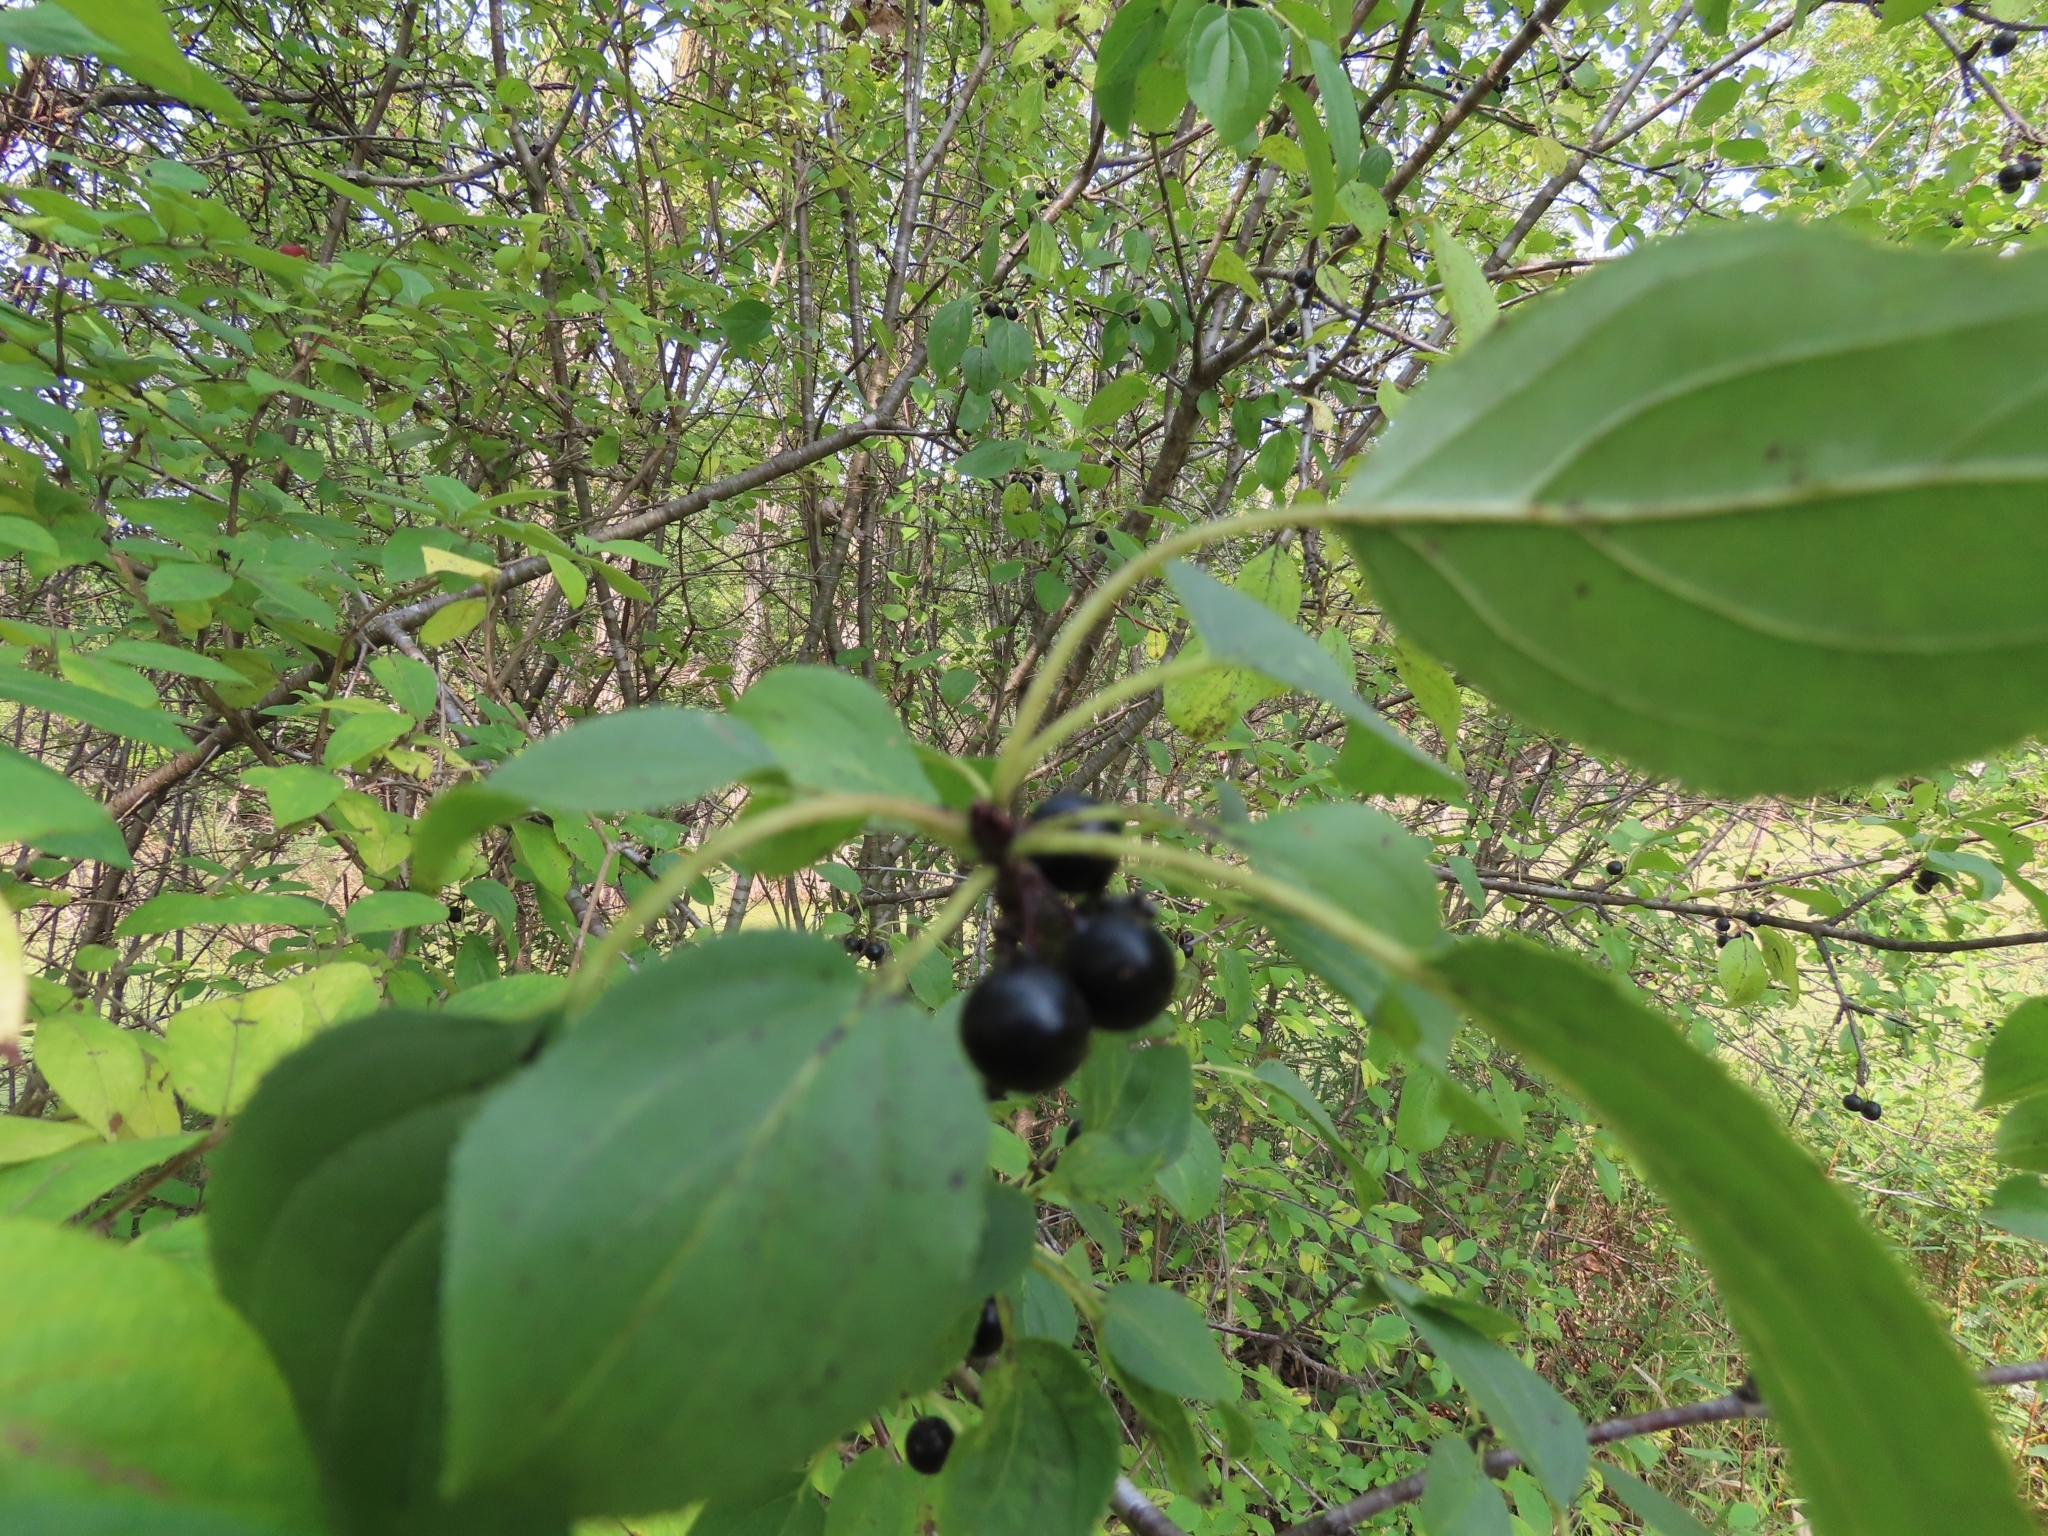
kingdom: Plantae
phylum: Tracheophyta
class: Magnoliopsida
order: Rosales
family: Rhamnaceae
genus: Rhamnus
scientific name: Rhamnus cathartica
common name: Common buckthorn
